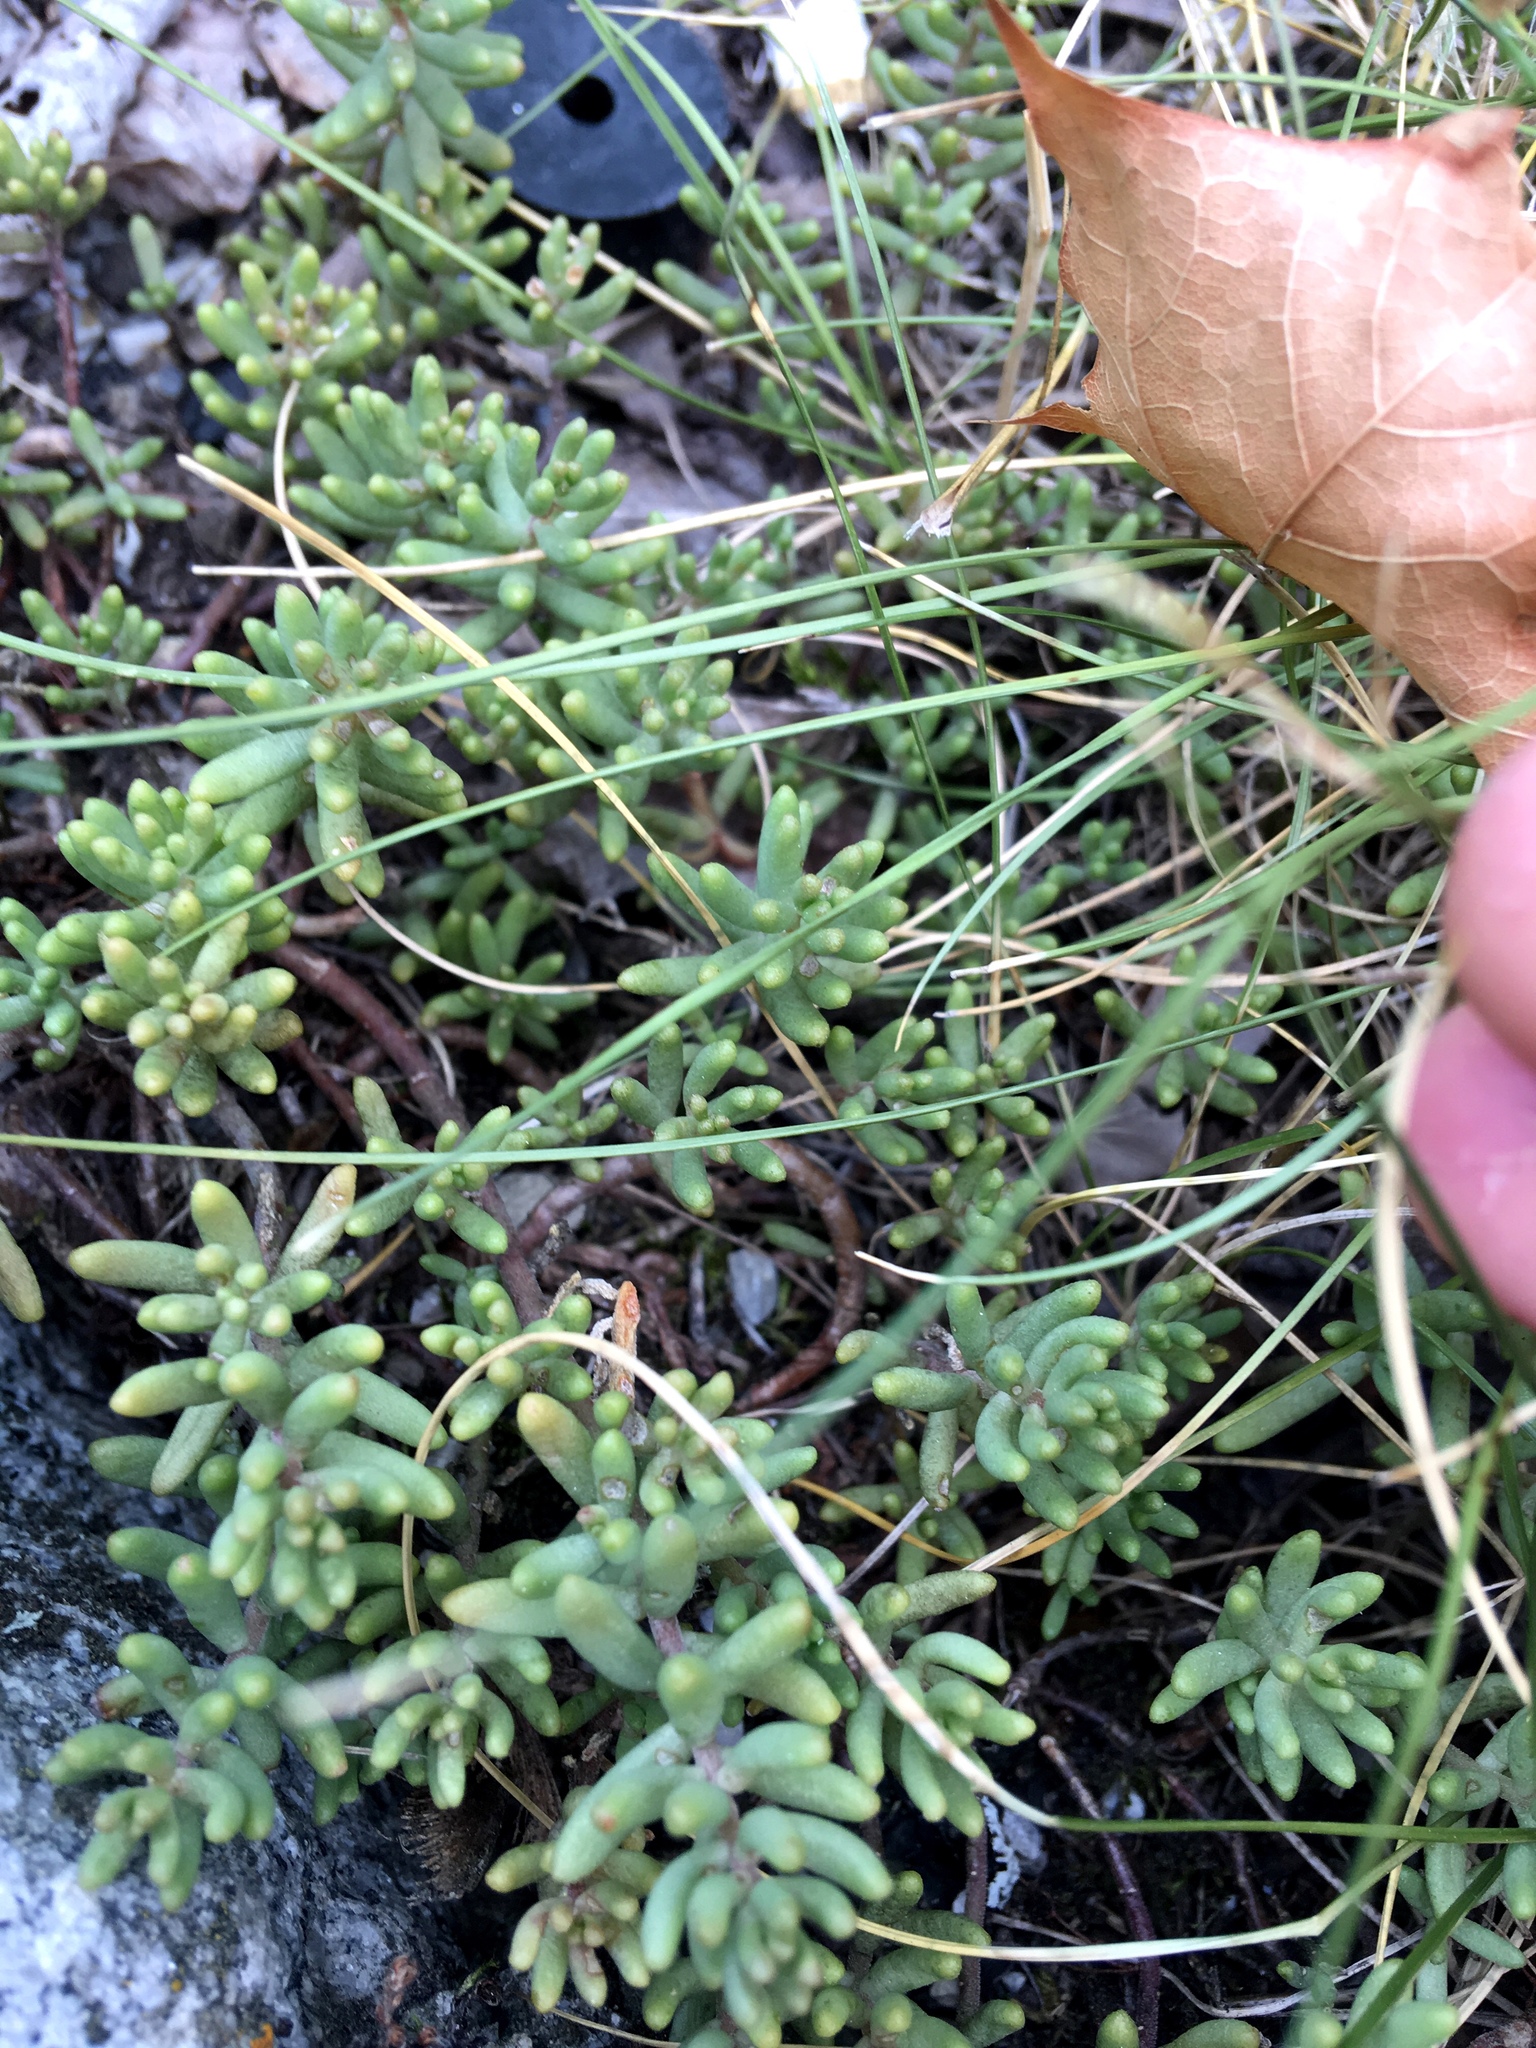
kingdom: Plantae
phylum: Tracheophyta
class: Magnoliopsida
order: Saxifragales
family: Crassulaceae
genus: Sedum
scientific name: Sedum album
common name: White stonecrop
